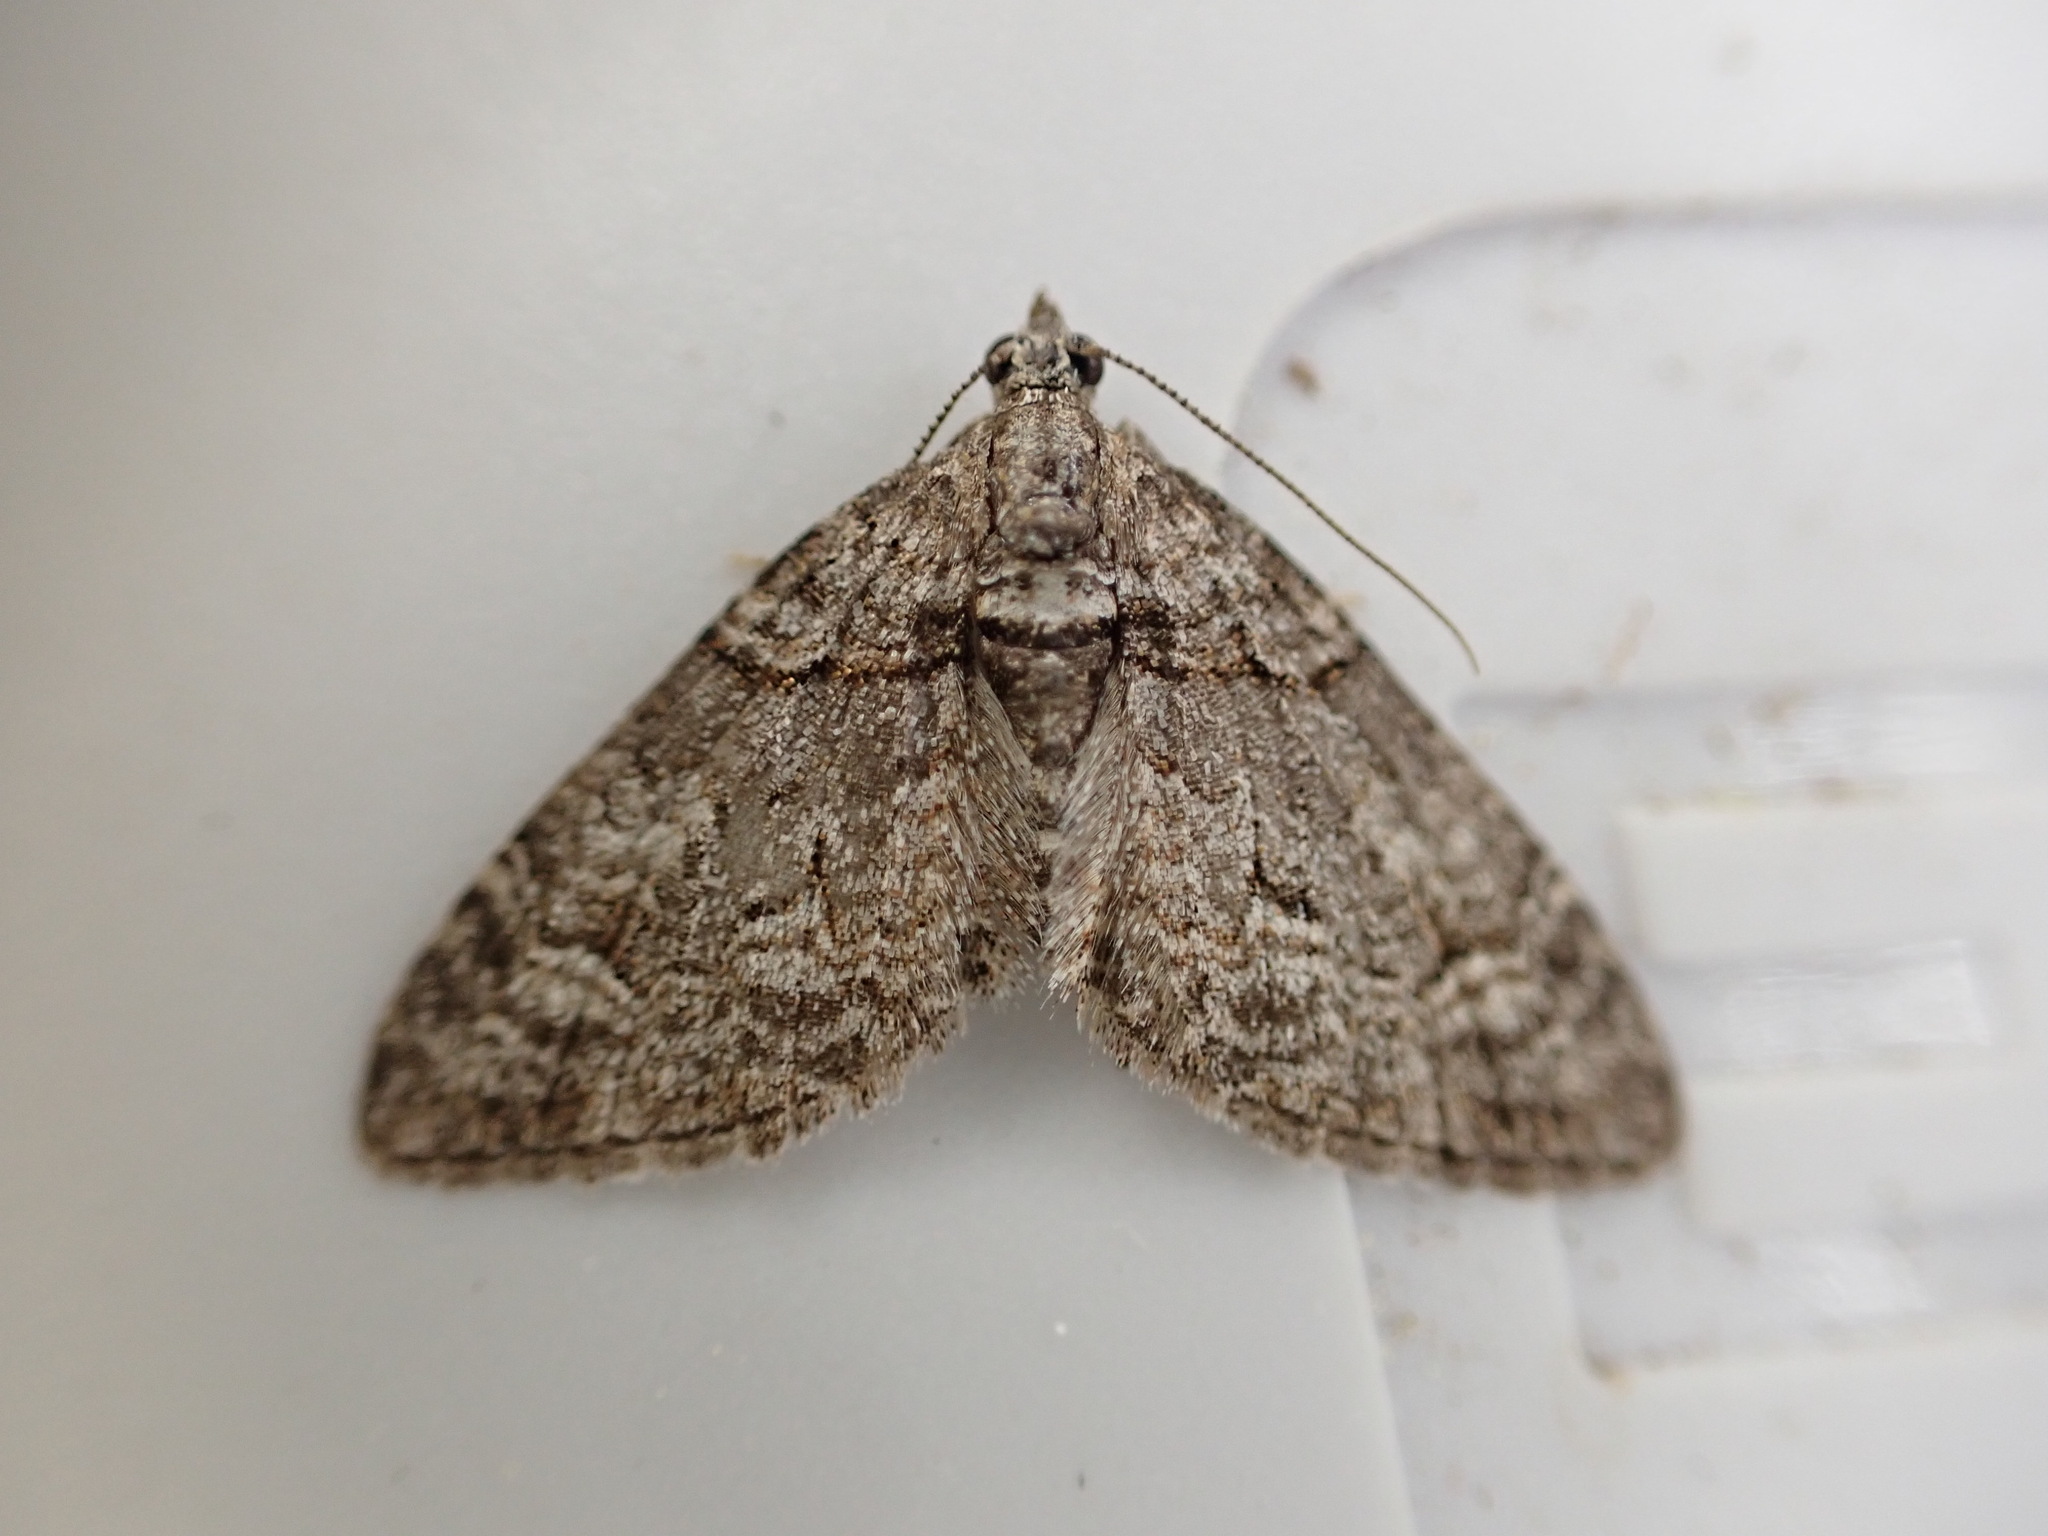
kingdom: Animalia
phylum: Arthropoda
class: Insecta
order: Lepidoptera
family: Geometridae
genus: Phrissogonus
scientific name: Phrissogonus laticostata
